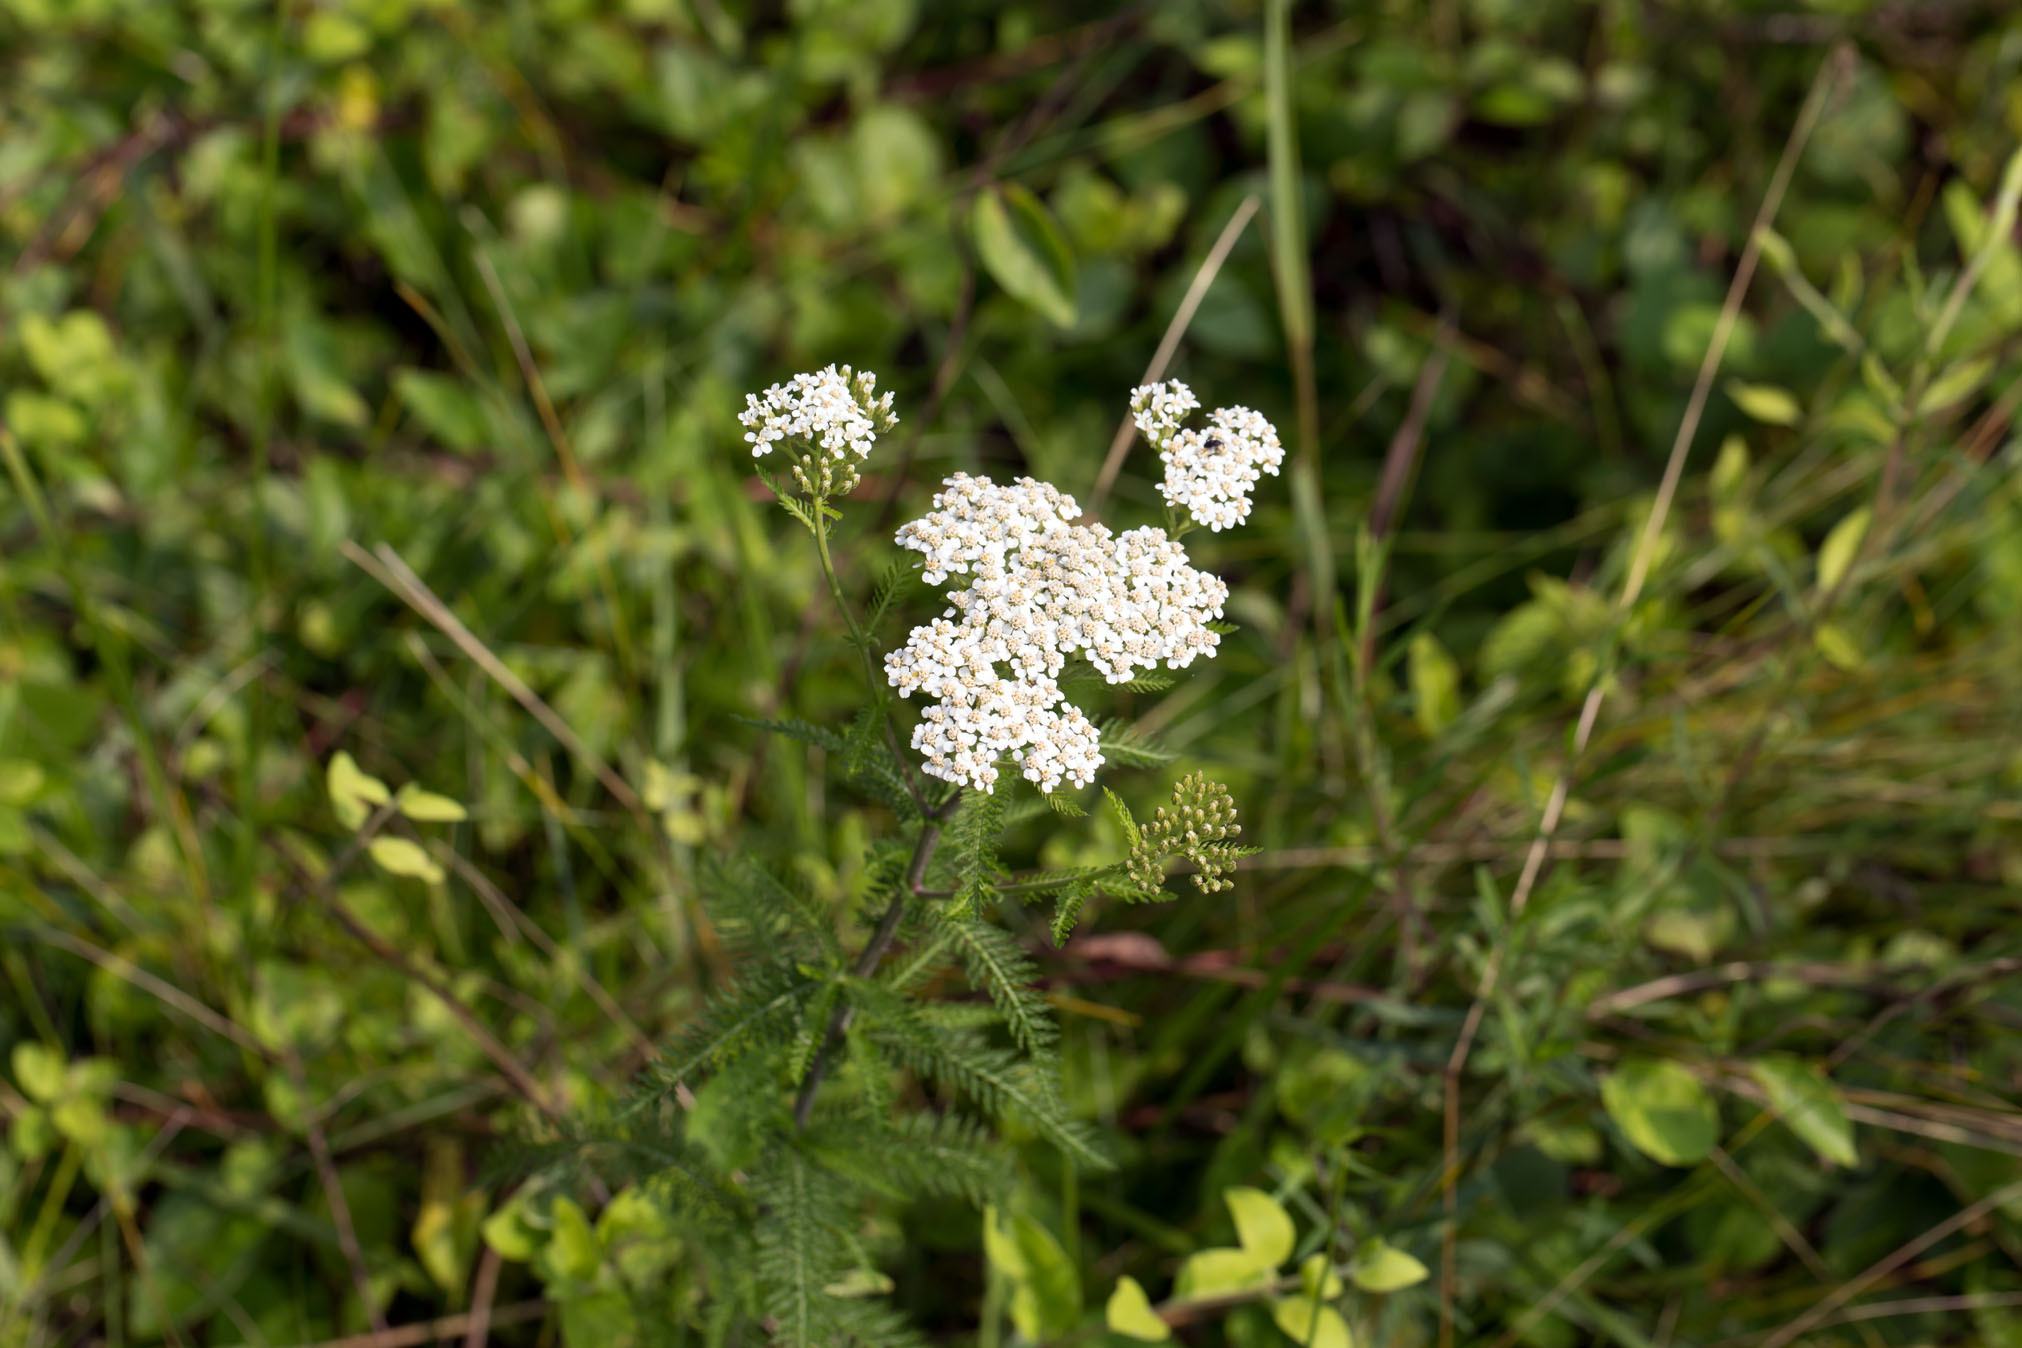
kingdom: Plantae
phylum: Tracheophyta
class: Magnoliopsida
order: Asterales
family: Asteraceae
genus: Achillea
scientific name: Achillea millefolium
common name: Yarrow
